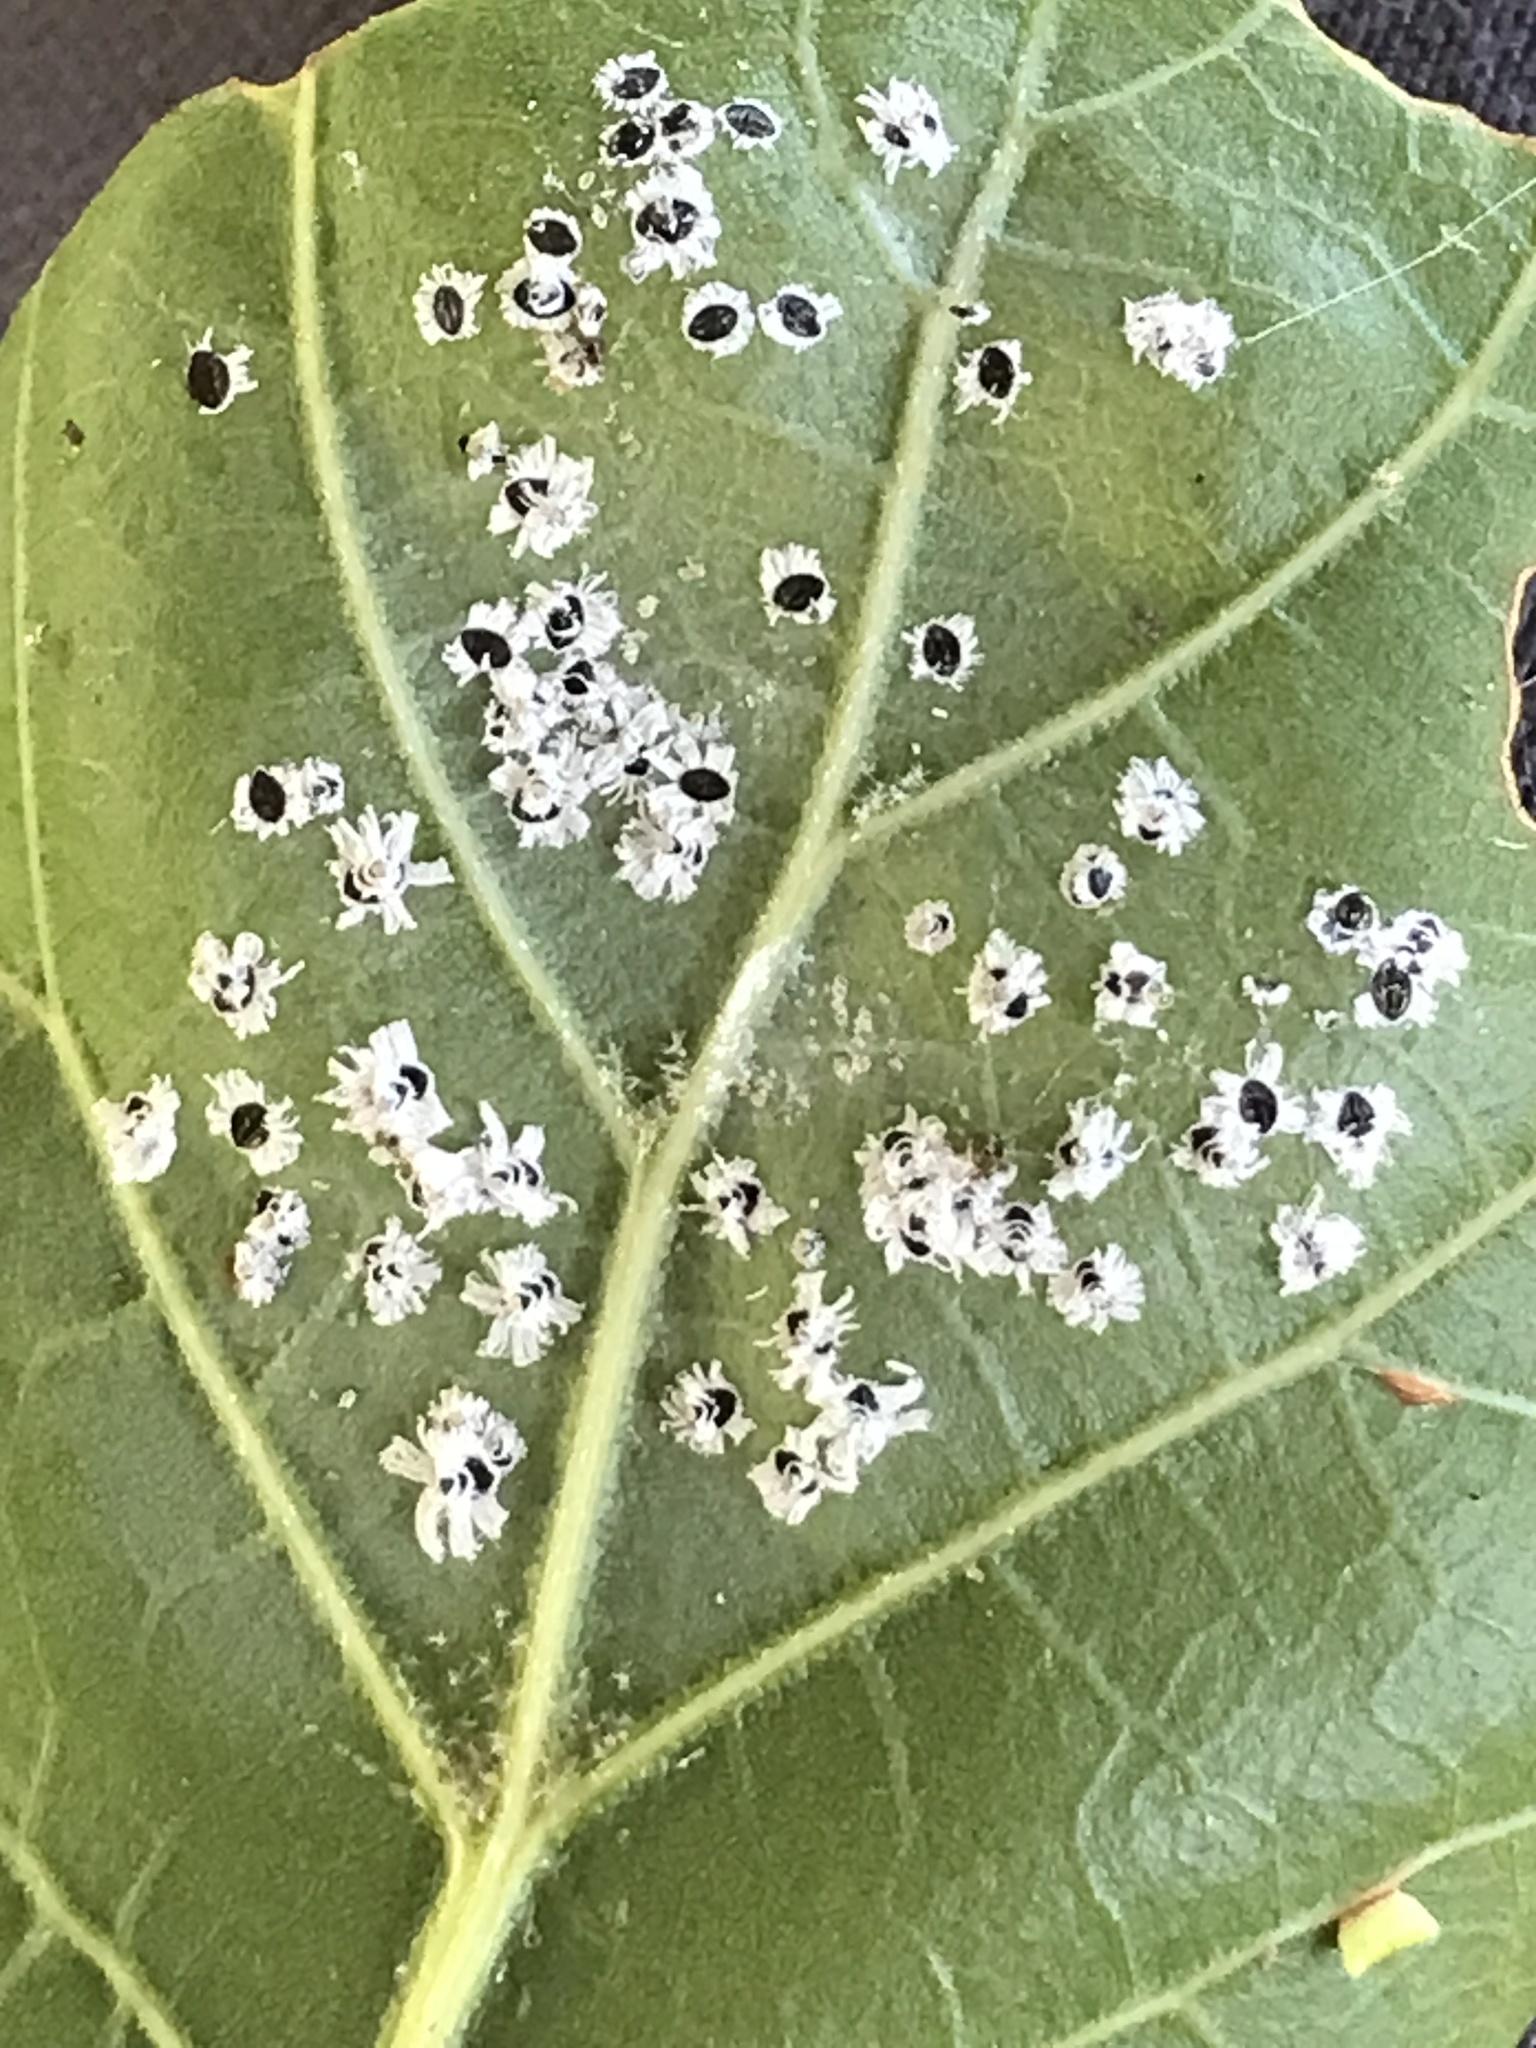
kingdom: Animalia
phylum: Arthropoda
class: Insecta
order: Hemiptera
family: Aleyrodidae
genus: Aleuroplatus
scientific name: Aleuroplatus coronata
